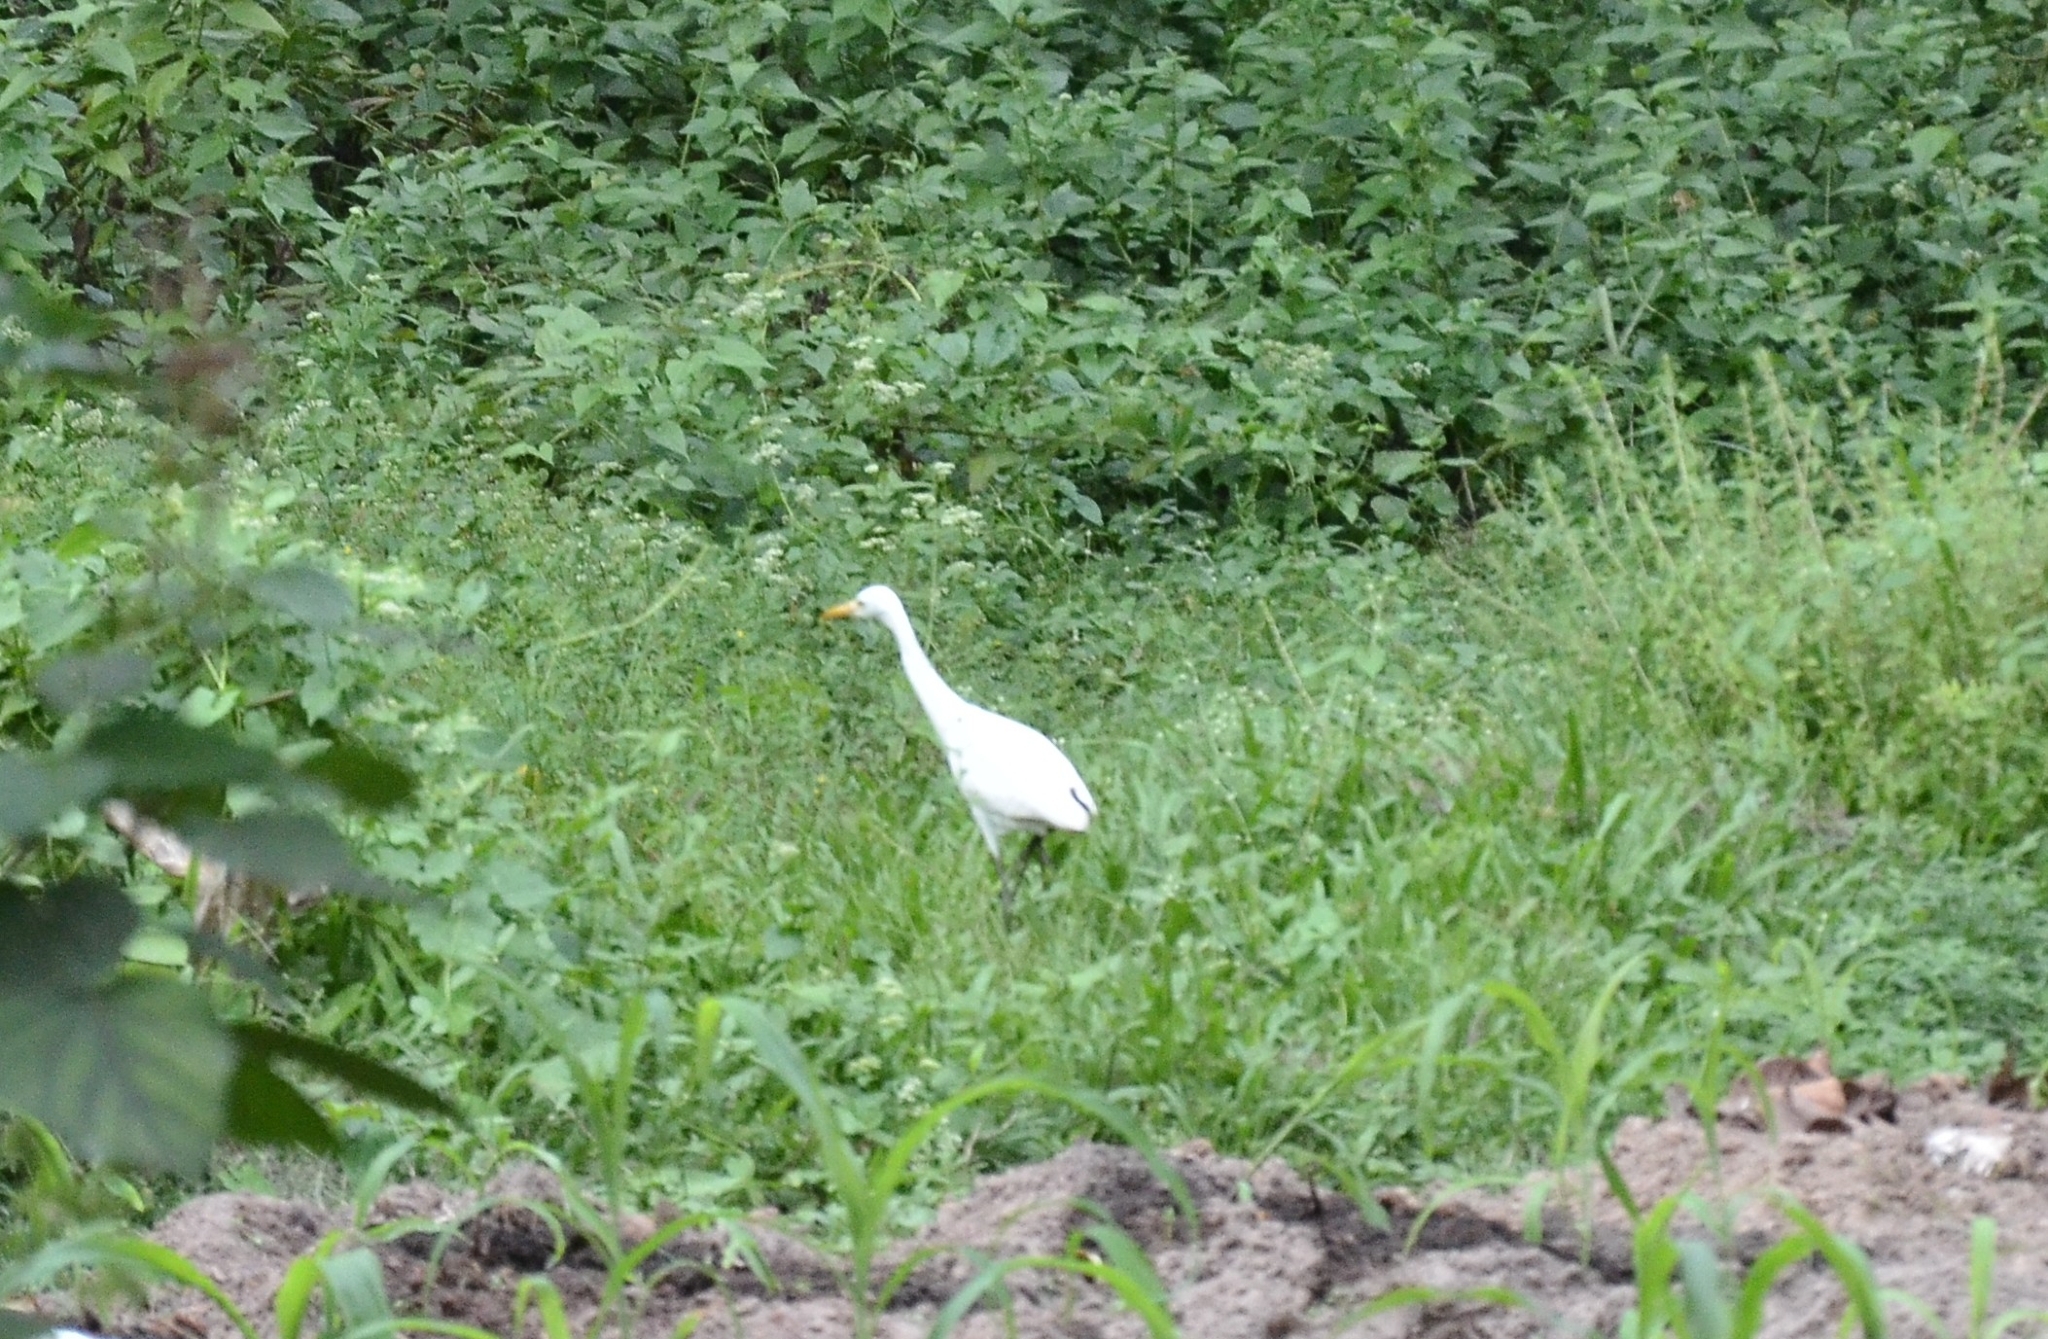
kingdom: Animalia
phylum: Chordata
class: Aves
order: Pelecaniformes
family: Ardeidae
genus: Bubulcus
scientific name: Bubulcus coromandus
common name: Eastern cattle egret
